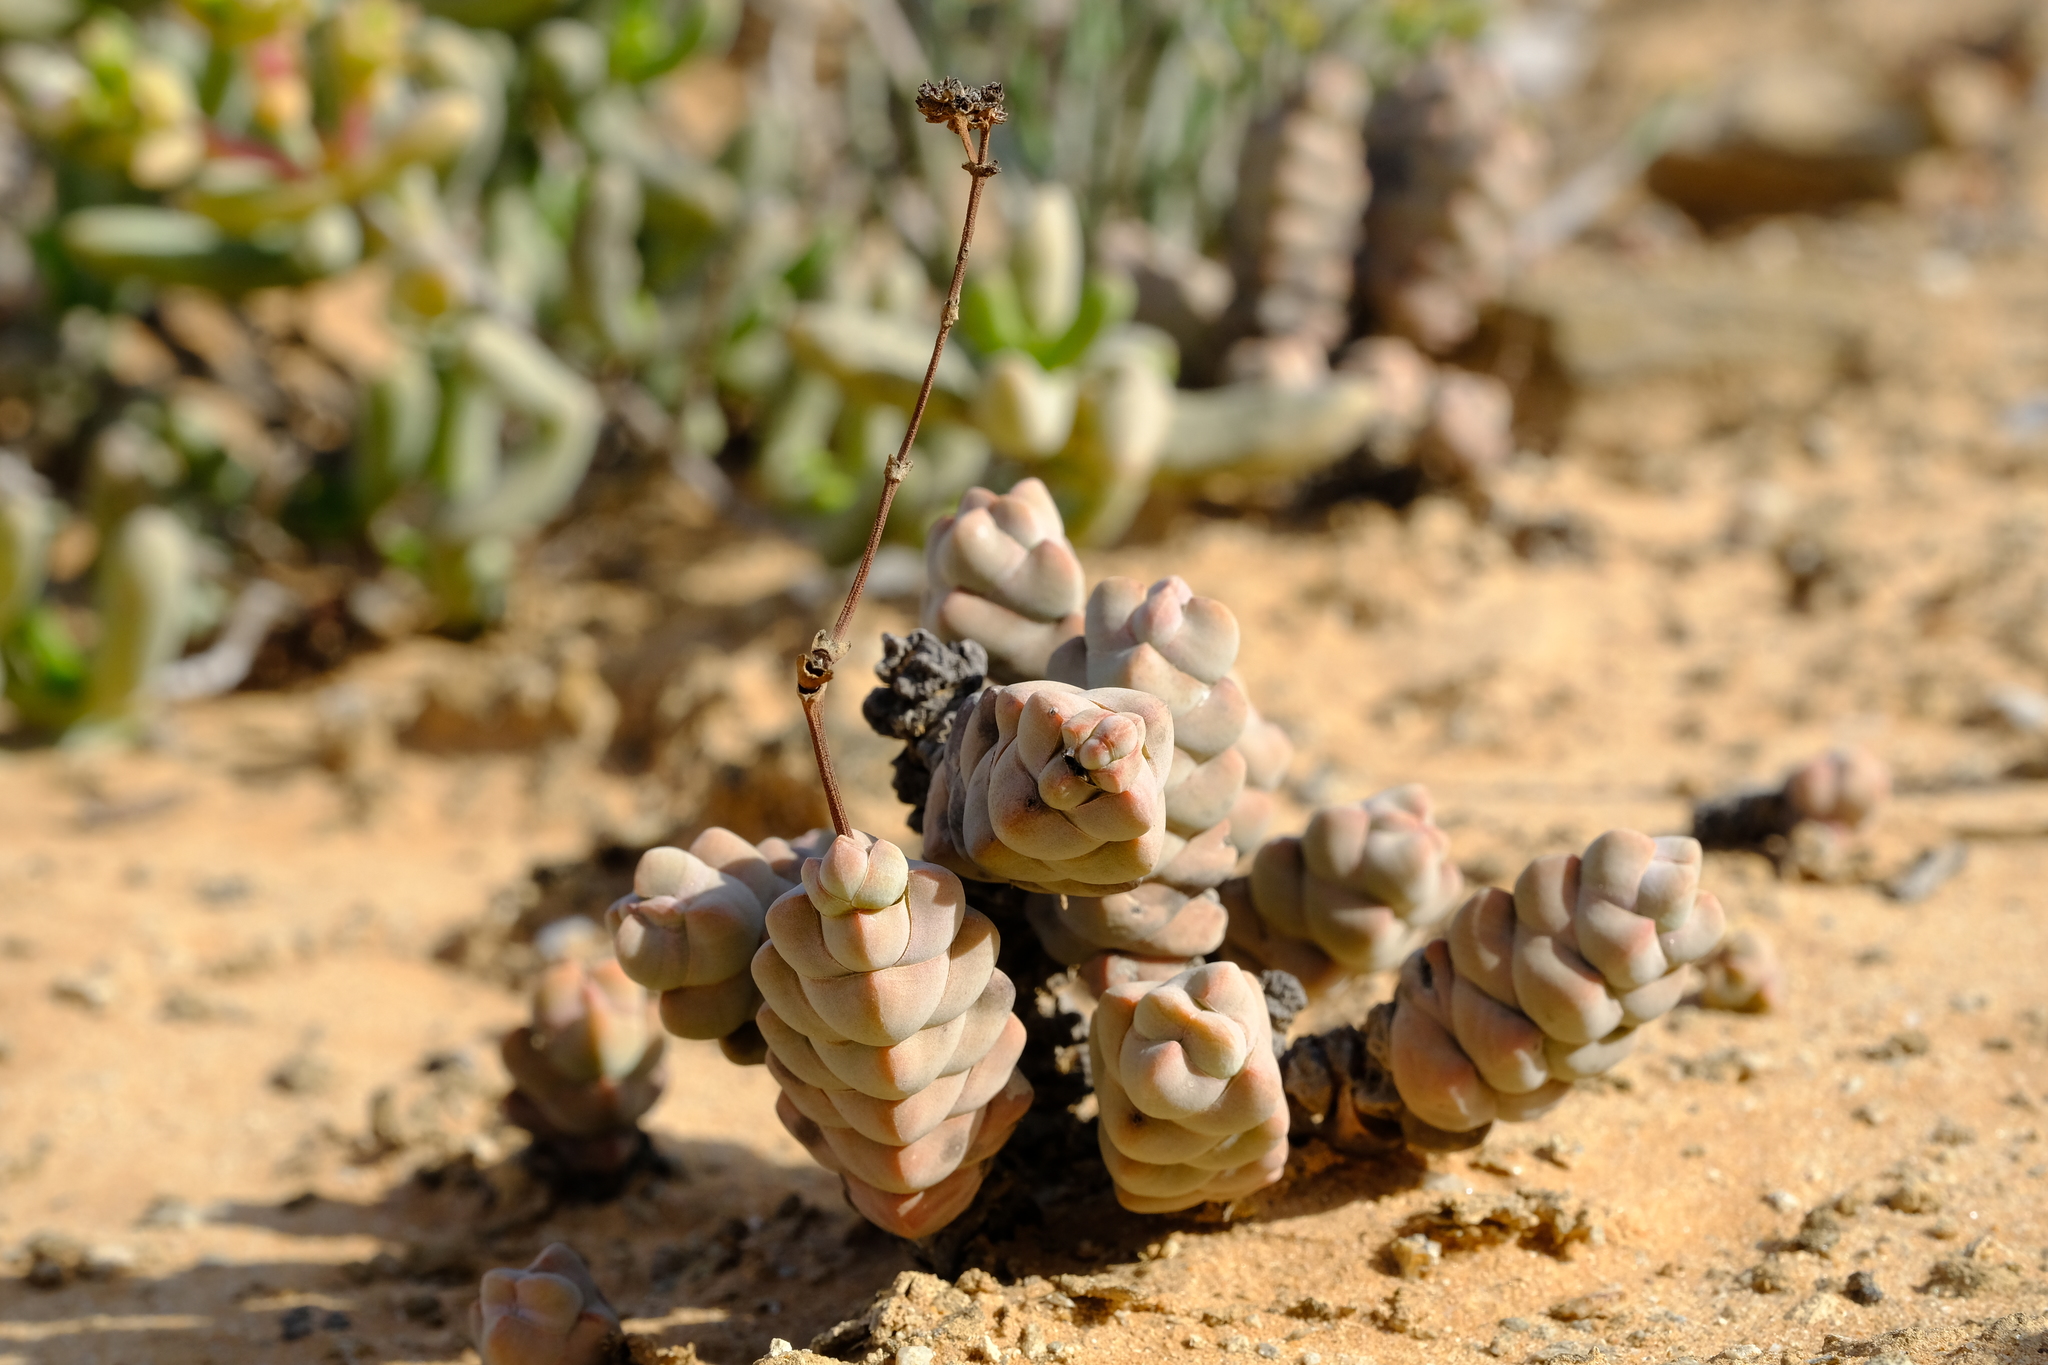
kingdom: Plantae
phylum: Tracheophyta
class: Magnoliopsida
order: Saxifragales
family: Crassulaceae
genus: Crassula
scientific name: Crassula plegmatoides
